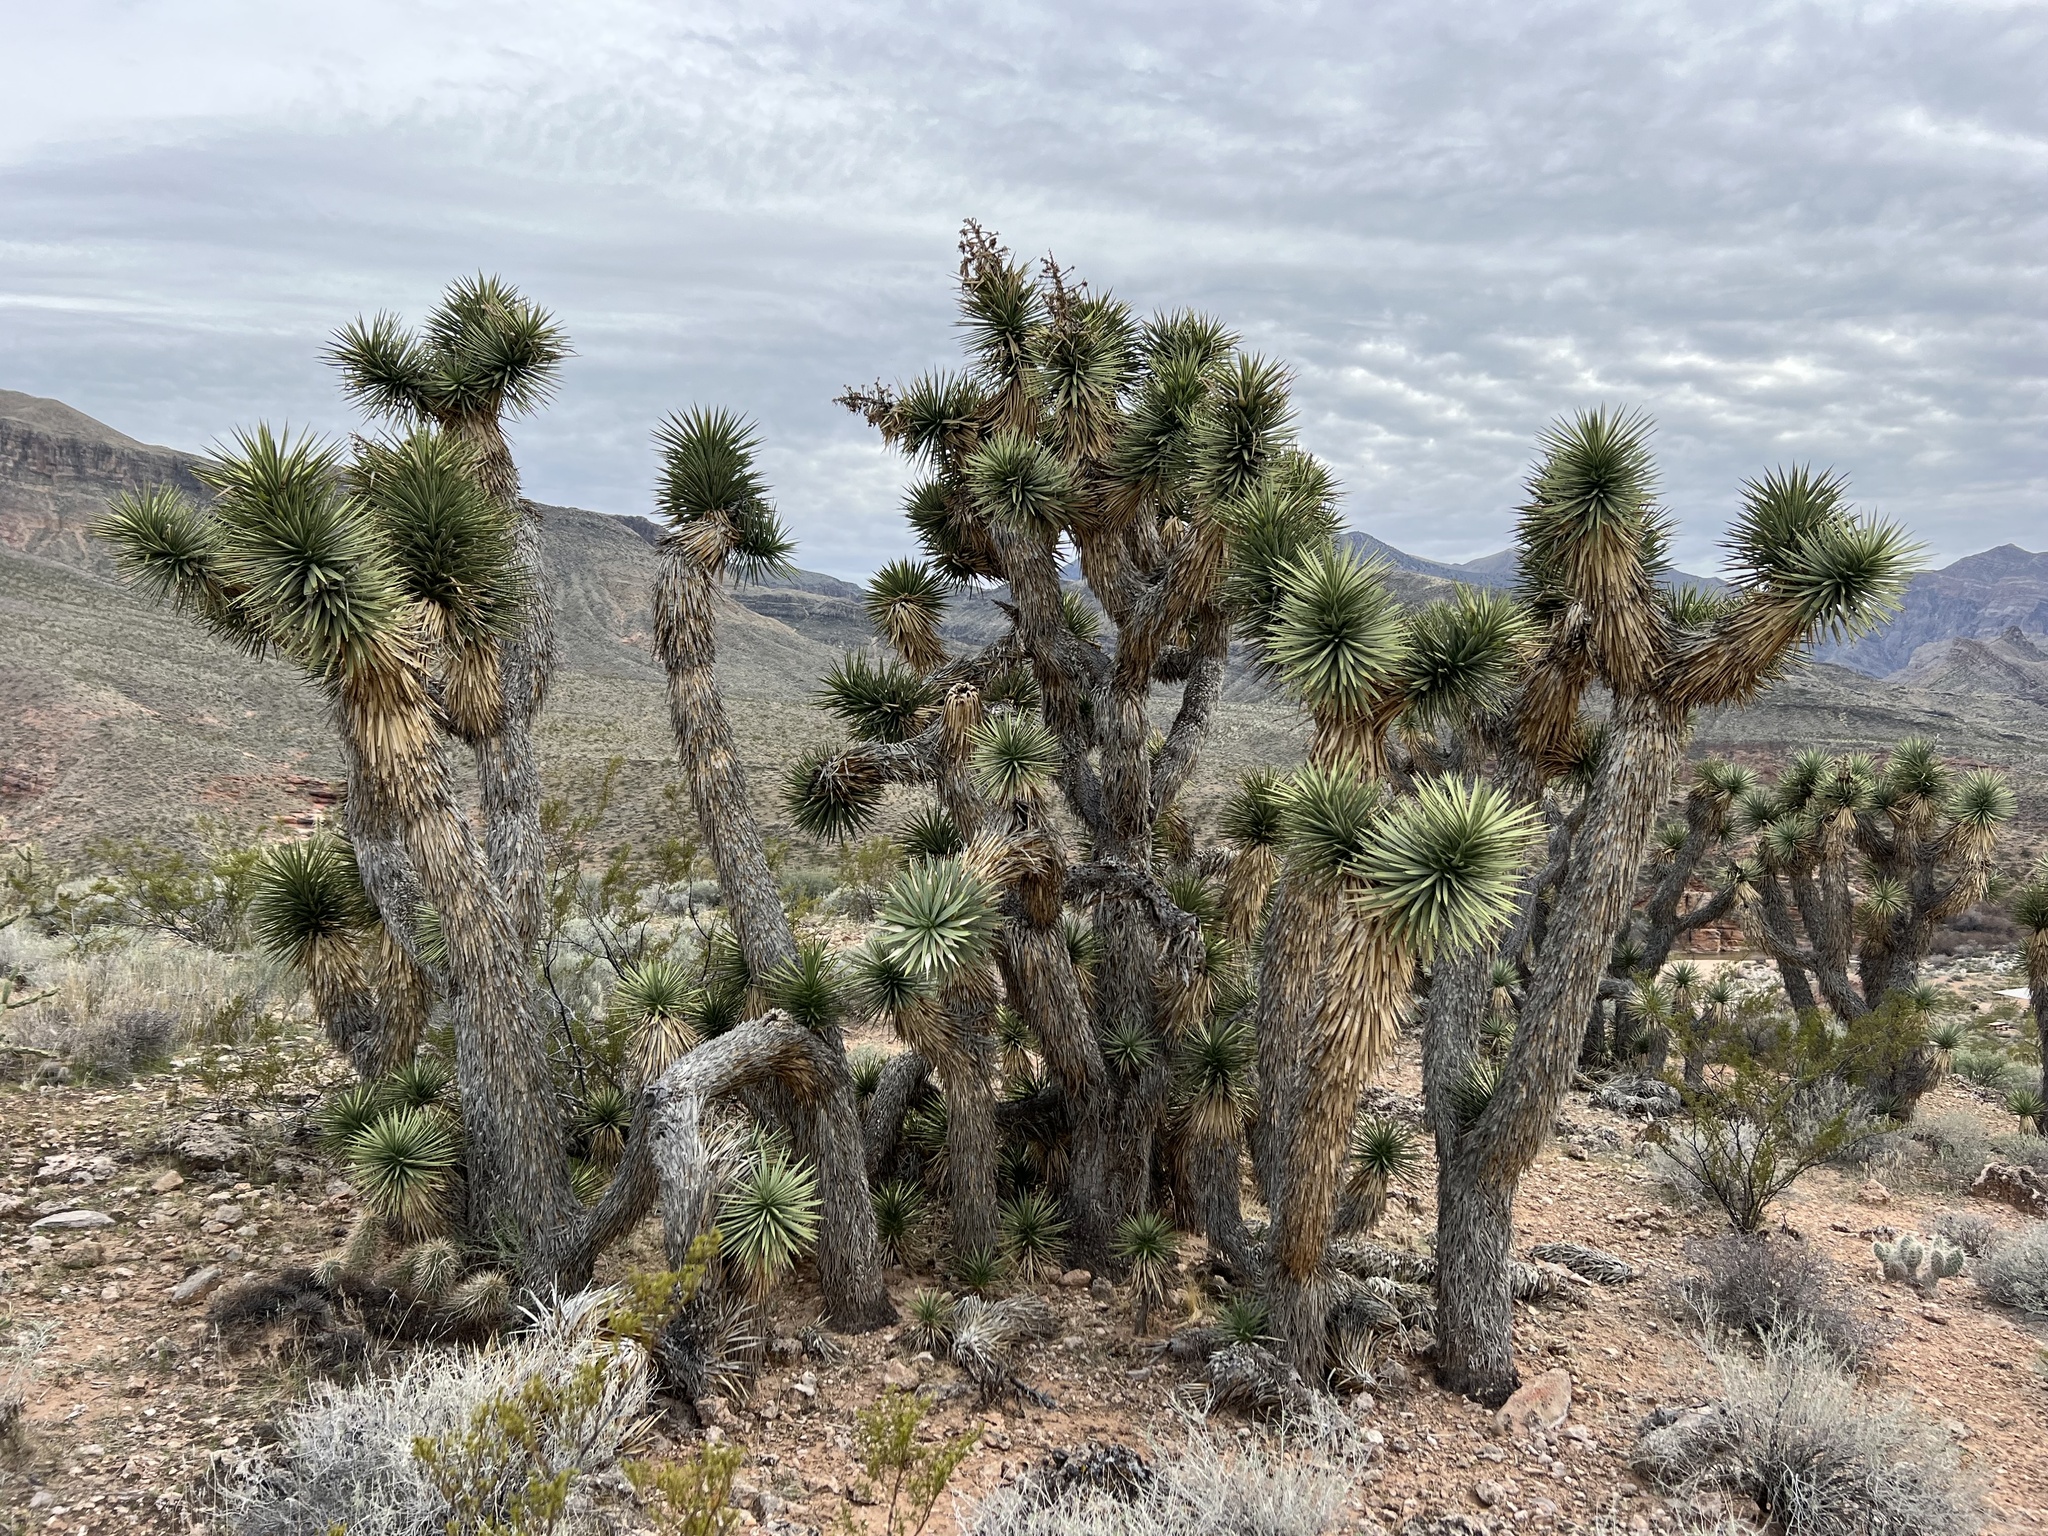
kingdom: Plantae
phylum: Tracheophyta
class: Liliopsida
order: Asparagales
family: Asparagaceae
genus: Yucca
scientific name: Yucca brevifolia
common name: Joshua tree
